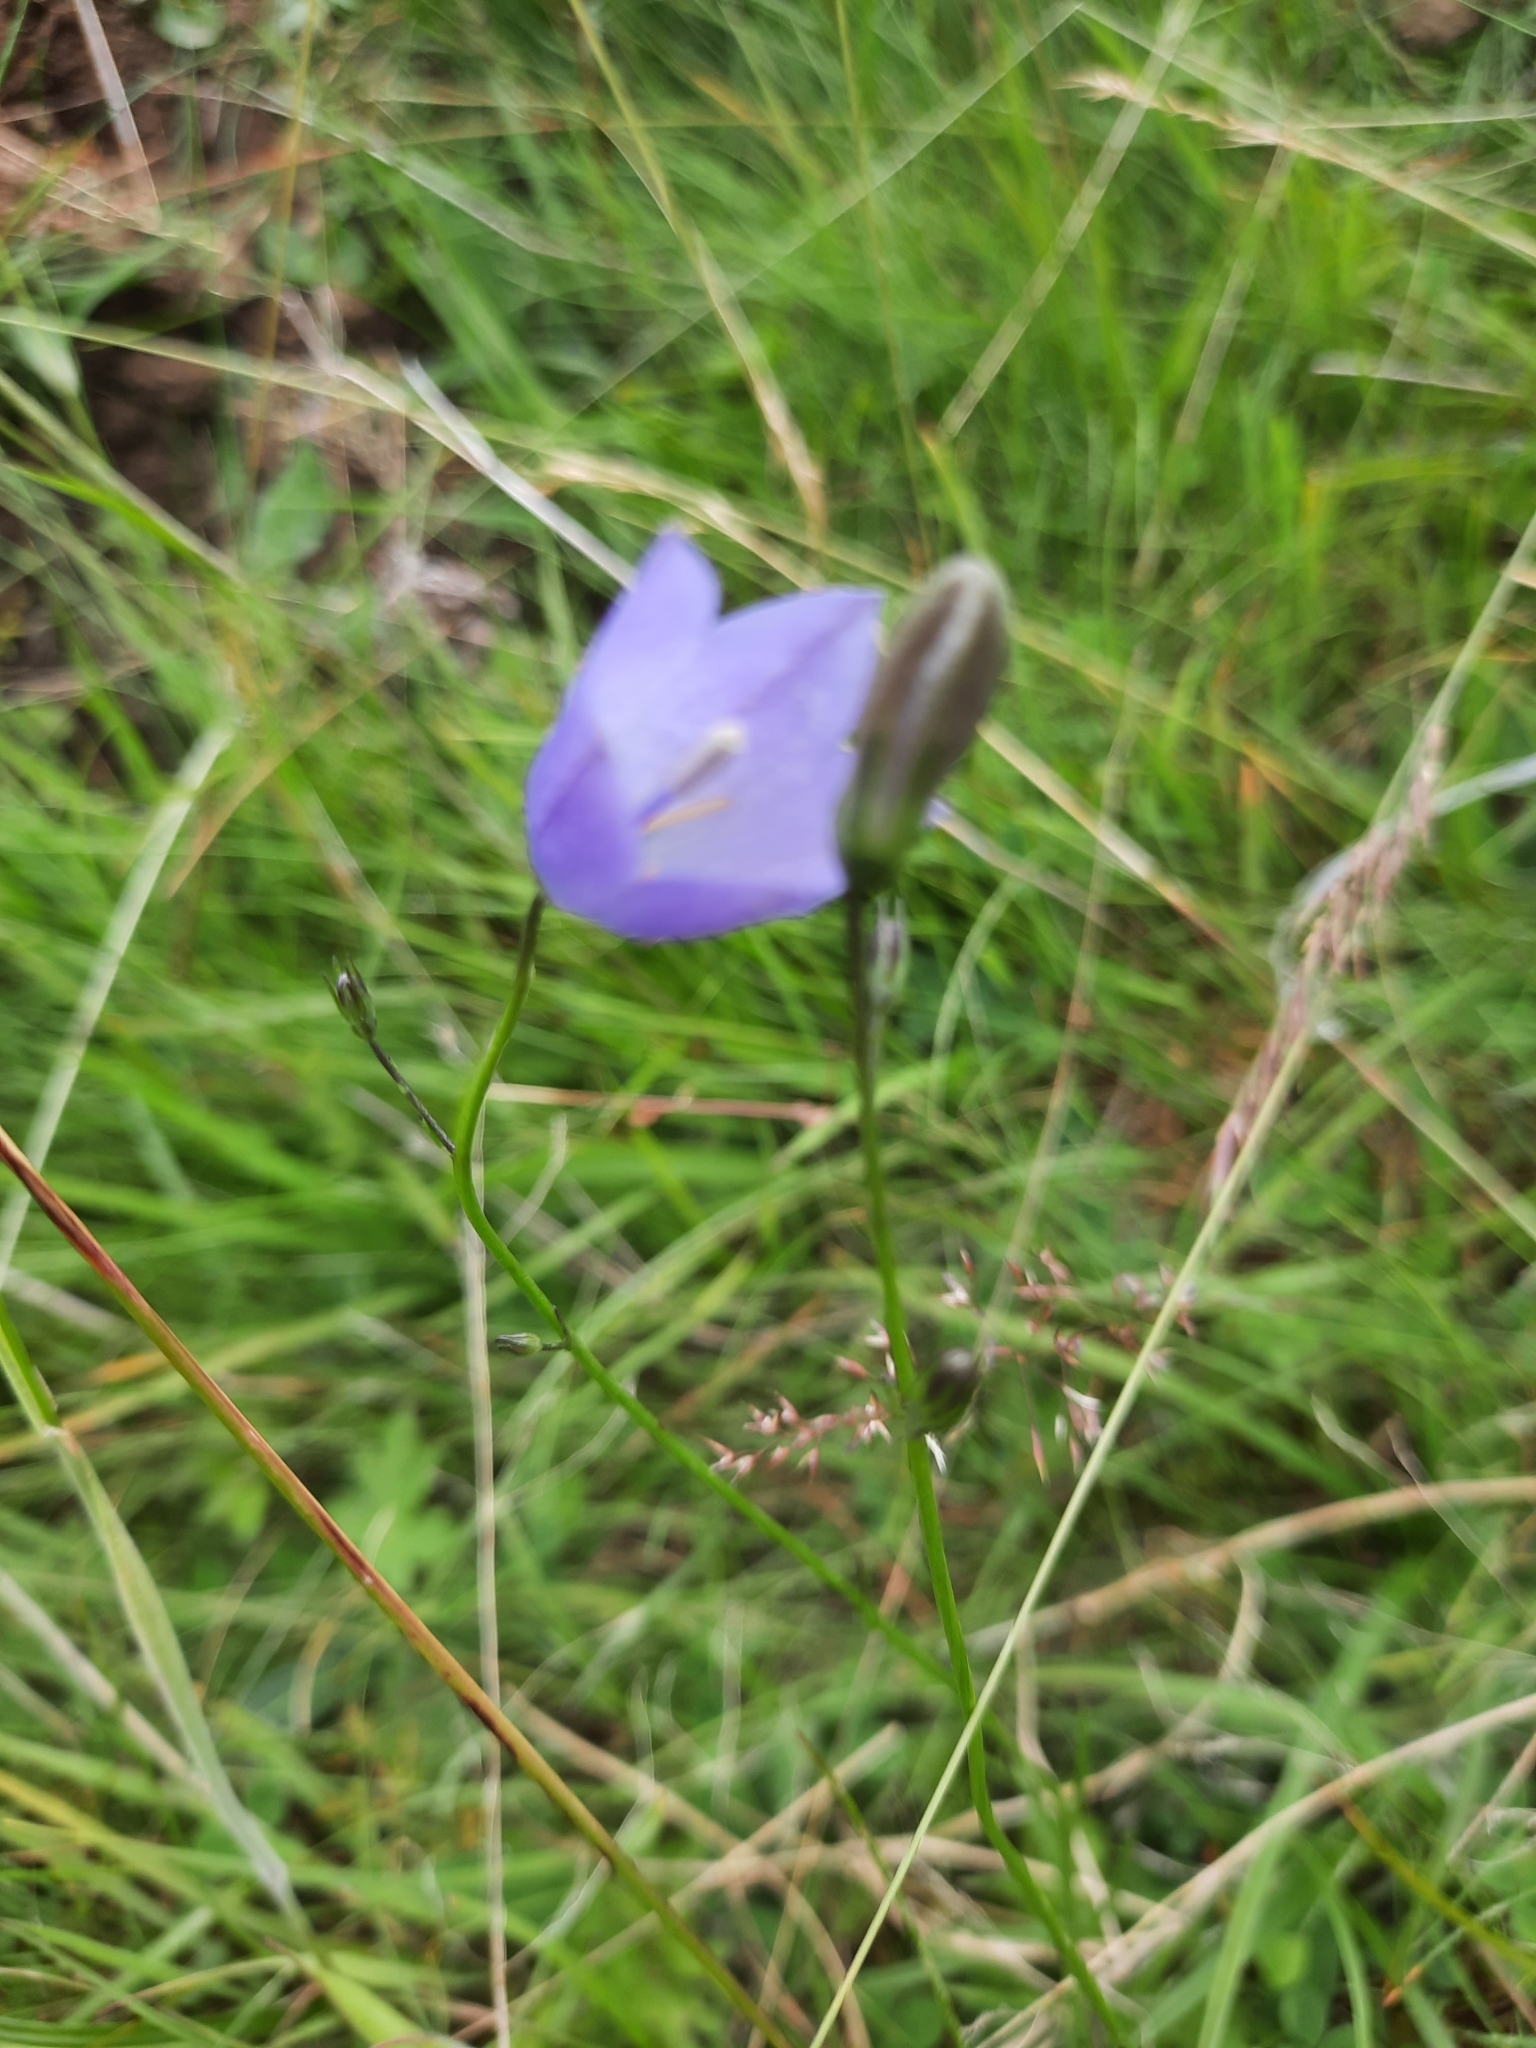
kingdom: Plantae
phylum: Tracheophyta
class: Magnoliopsida
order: Asterales
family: Campanulaceae
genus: Campanula
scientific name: Campanula rotundifolia
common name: Harebell
